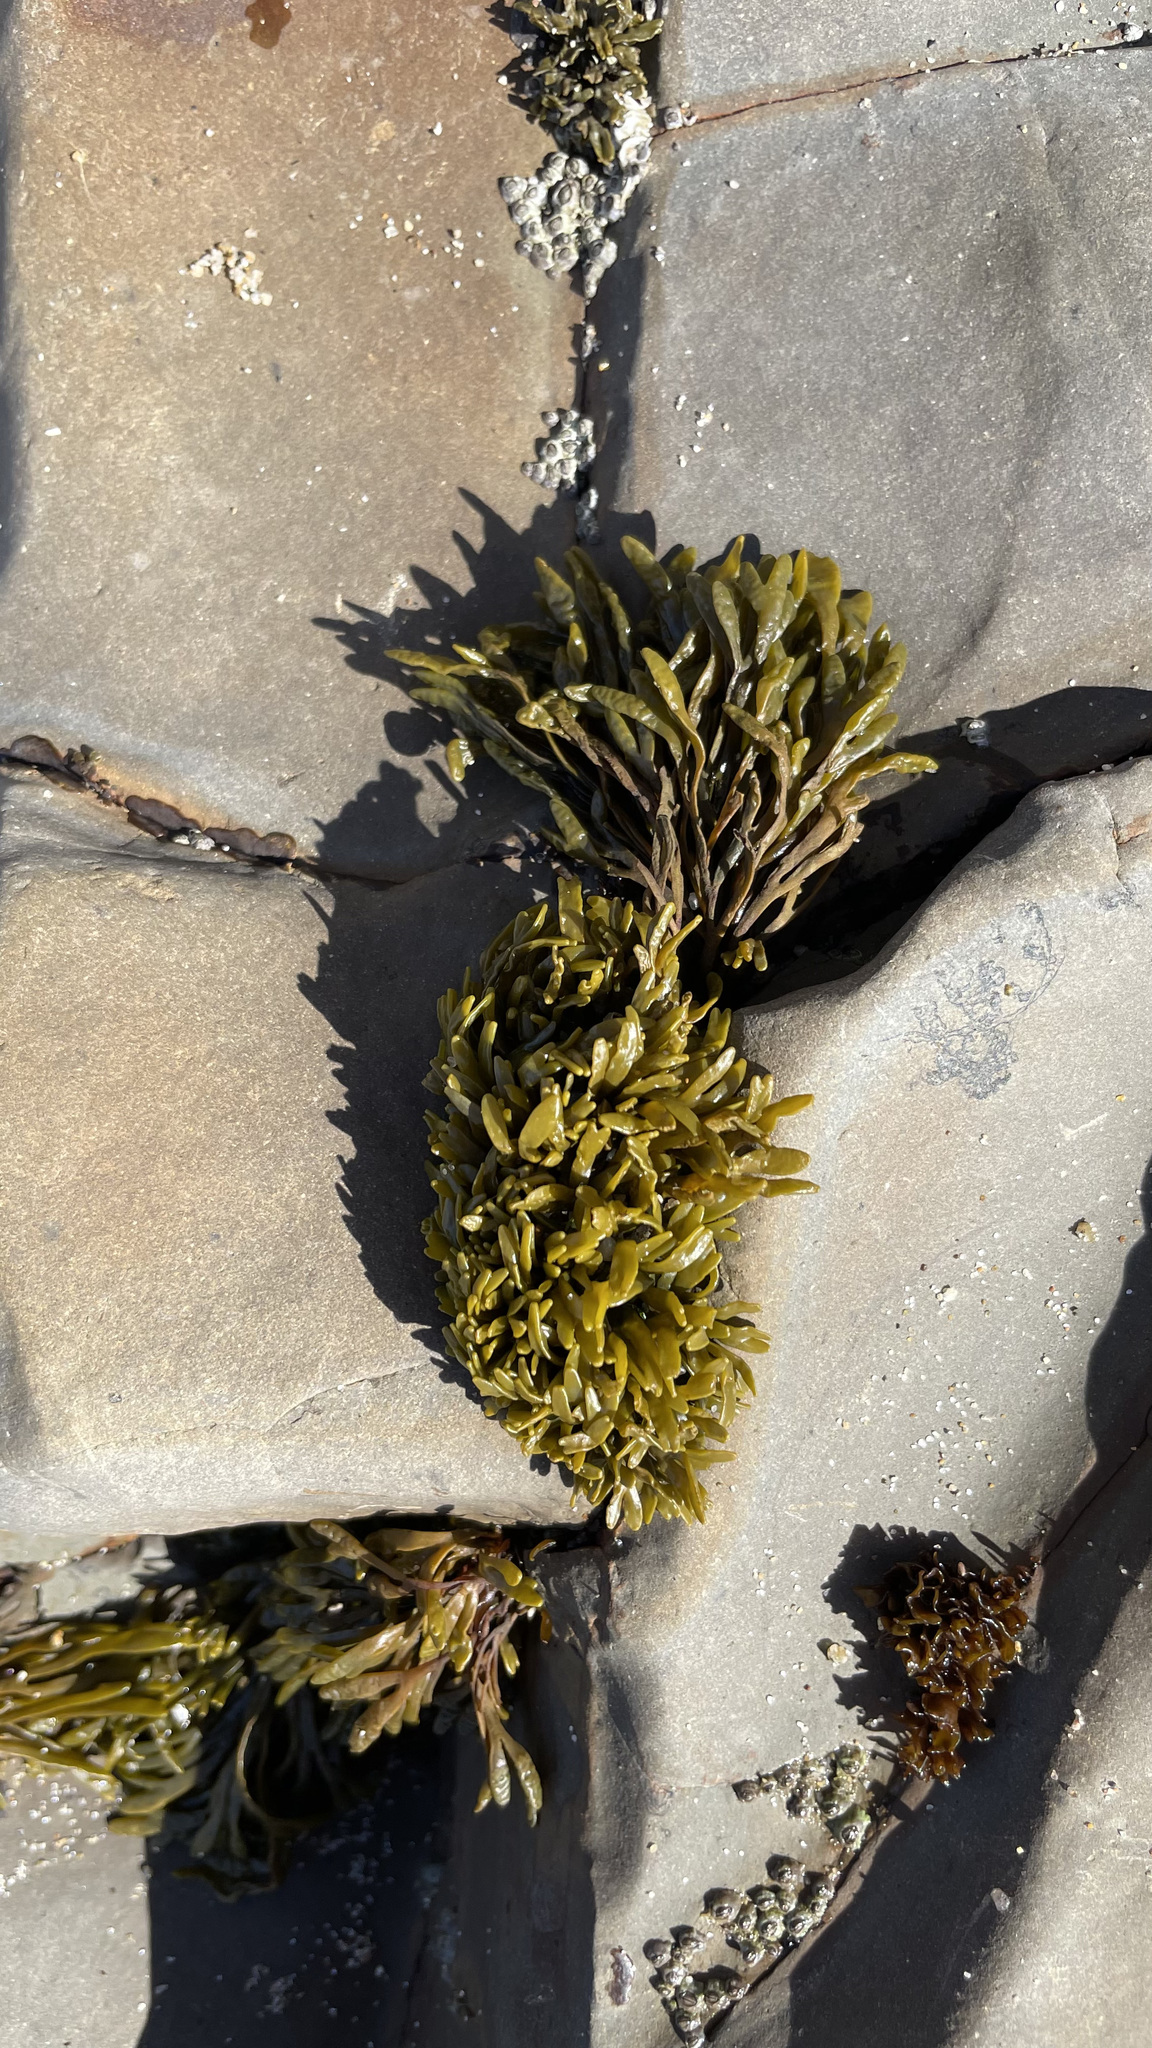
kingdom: Chromista
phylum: Ochrophyta
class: Phaeophyceae
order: Fucales
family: Fucaceae
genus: Pelvetiopsis
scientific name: Pelvetiopsis limitata
